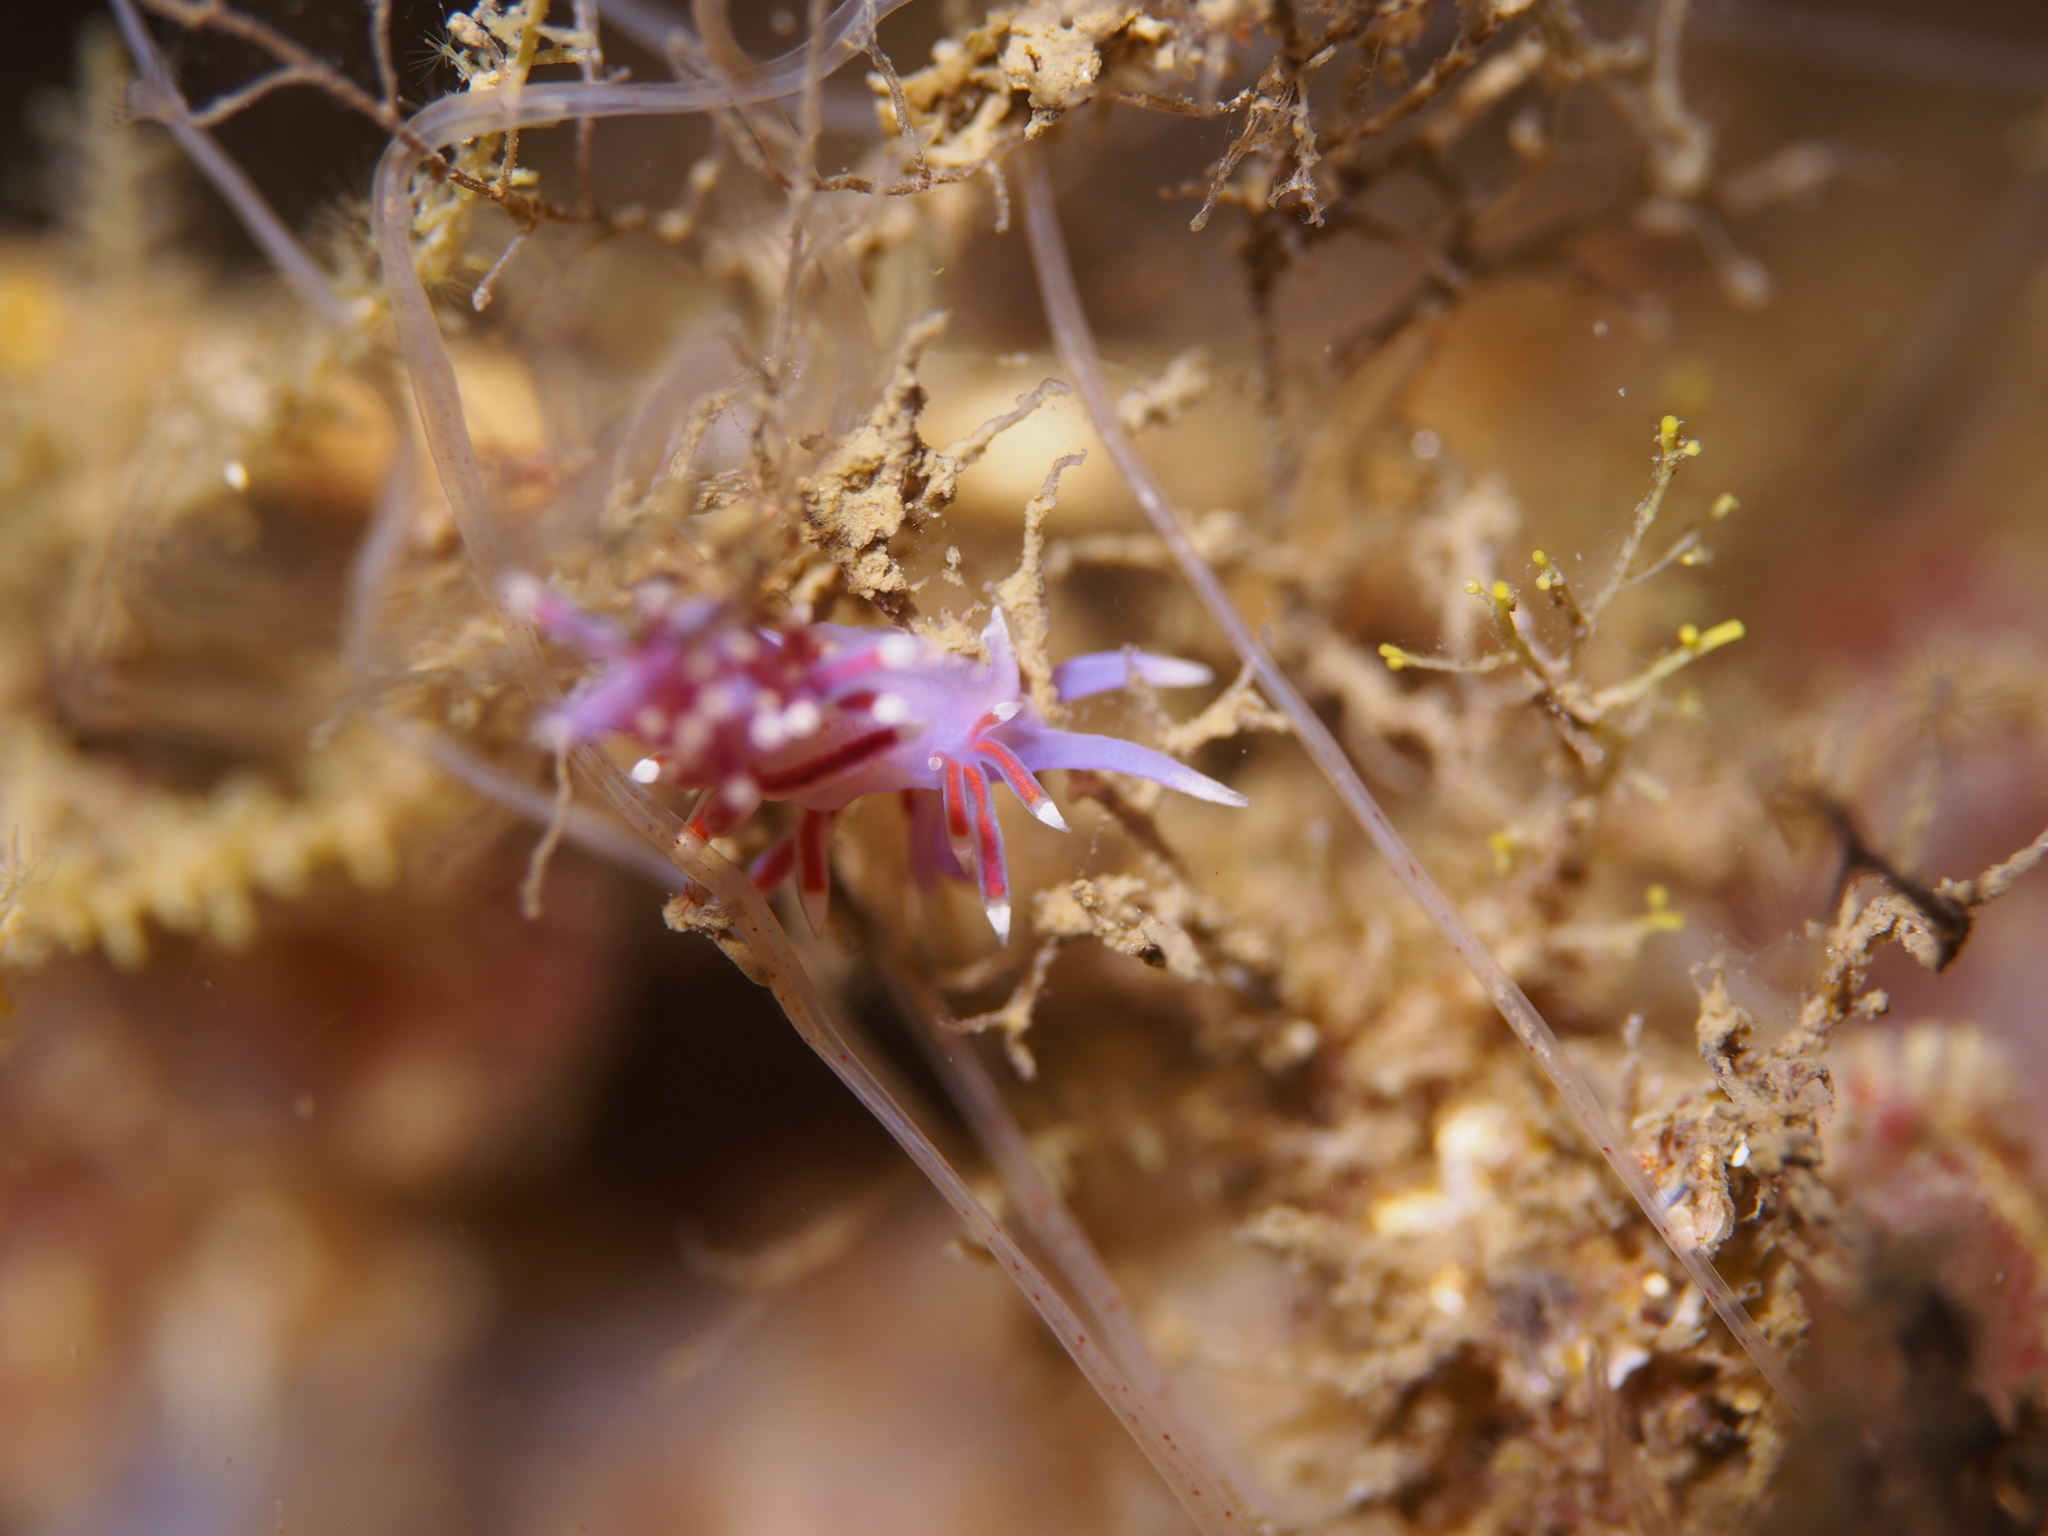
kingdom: Animalia
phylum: Mollusca
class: Gastropoda
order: Nudibranchia
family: Flabellinidae
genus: Edmundsella
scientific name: Edmundsella pedata
